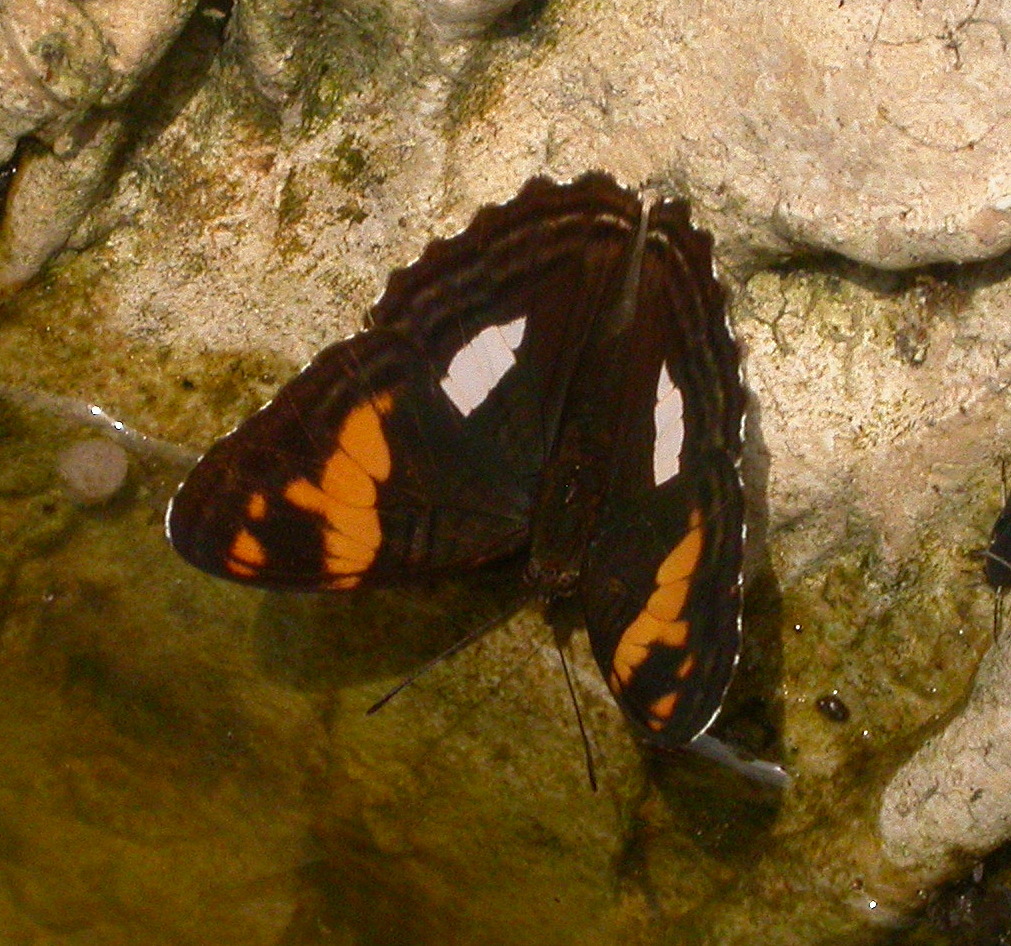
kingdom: Animalia
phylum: Arthropoda
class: Insecta
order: Lepidoptera
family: Nymphalidae
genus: Limenitis
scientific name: Limenitis justina
